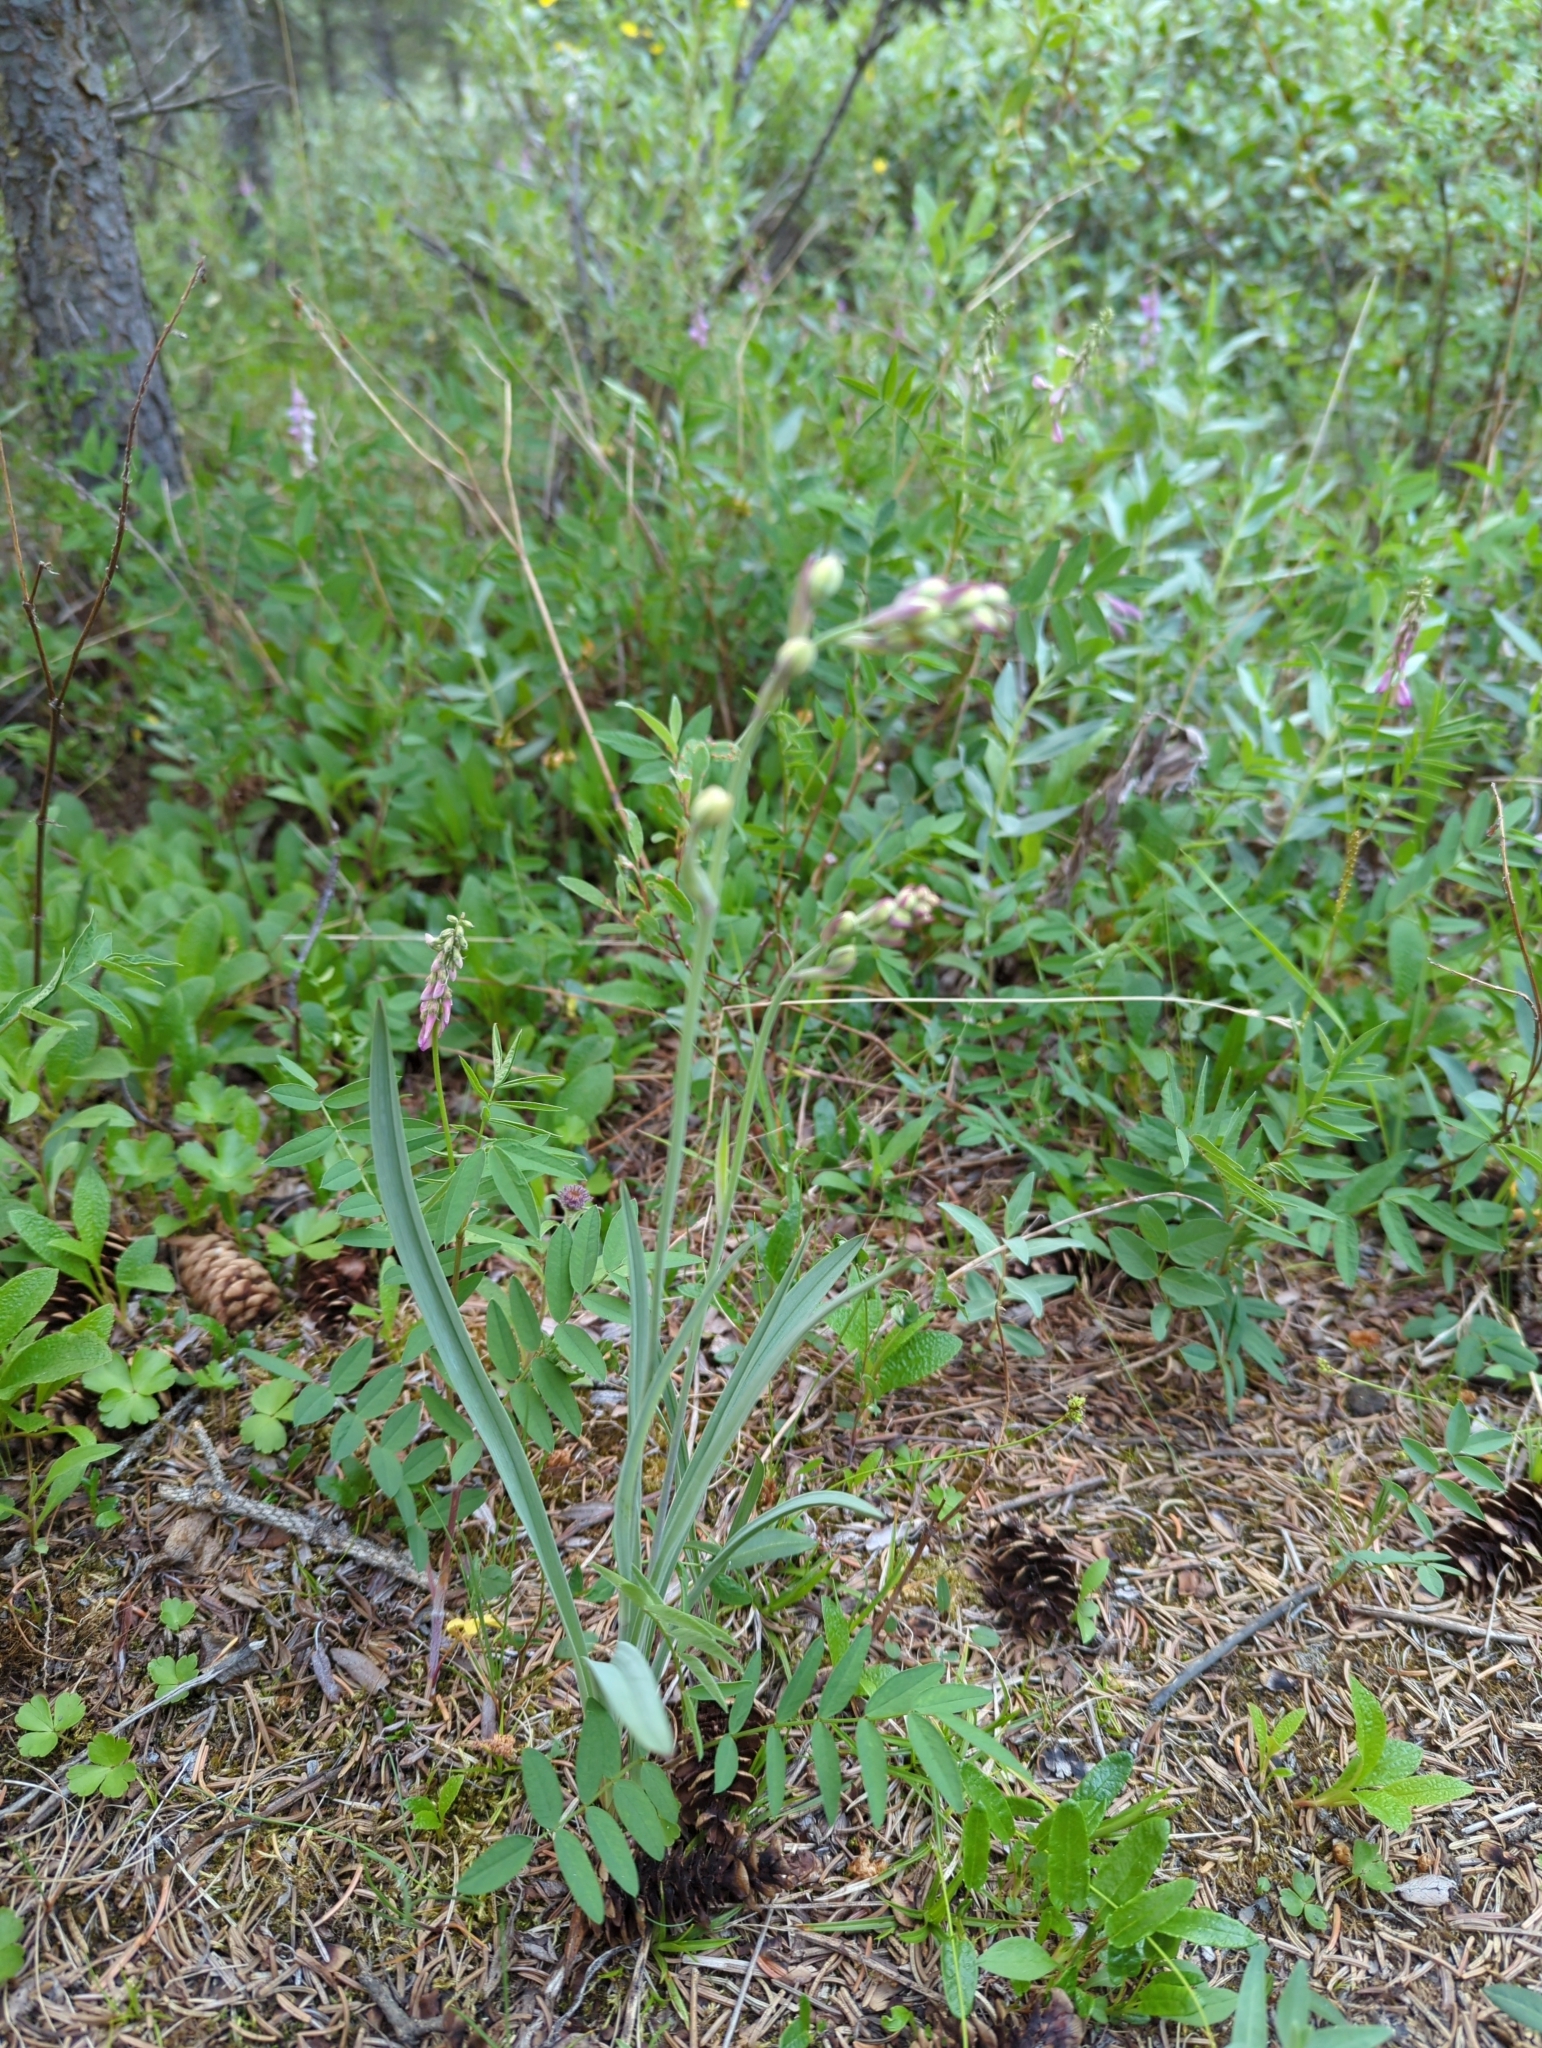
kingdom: Plantae
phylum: Tracheophyta
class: Liliopsida
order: Liliales
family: Melanthiaceae
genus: Anticlea
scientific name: Anticlea elegans
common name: Mountain death camas
